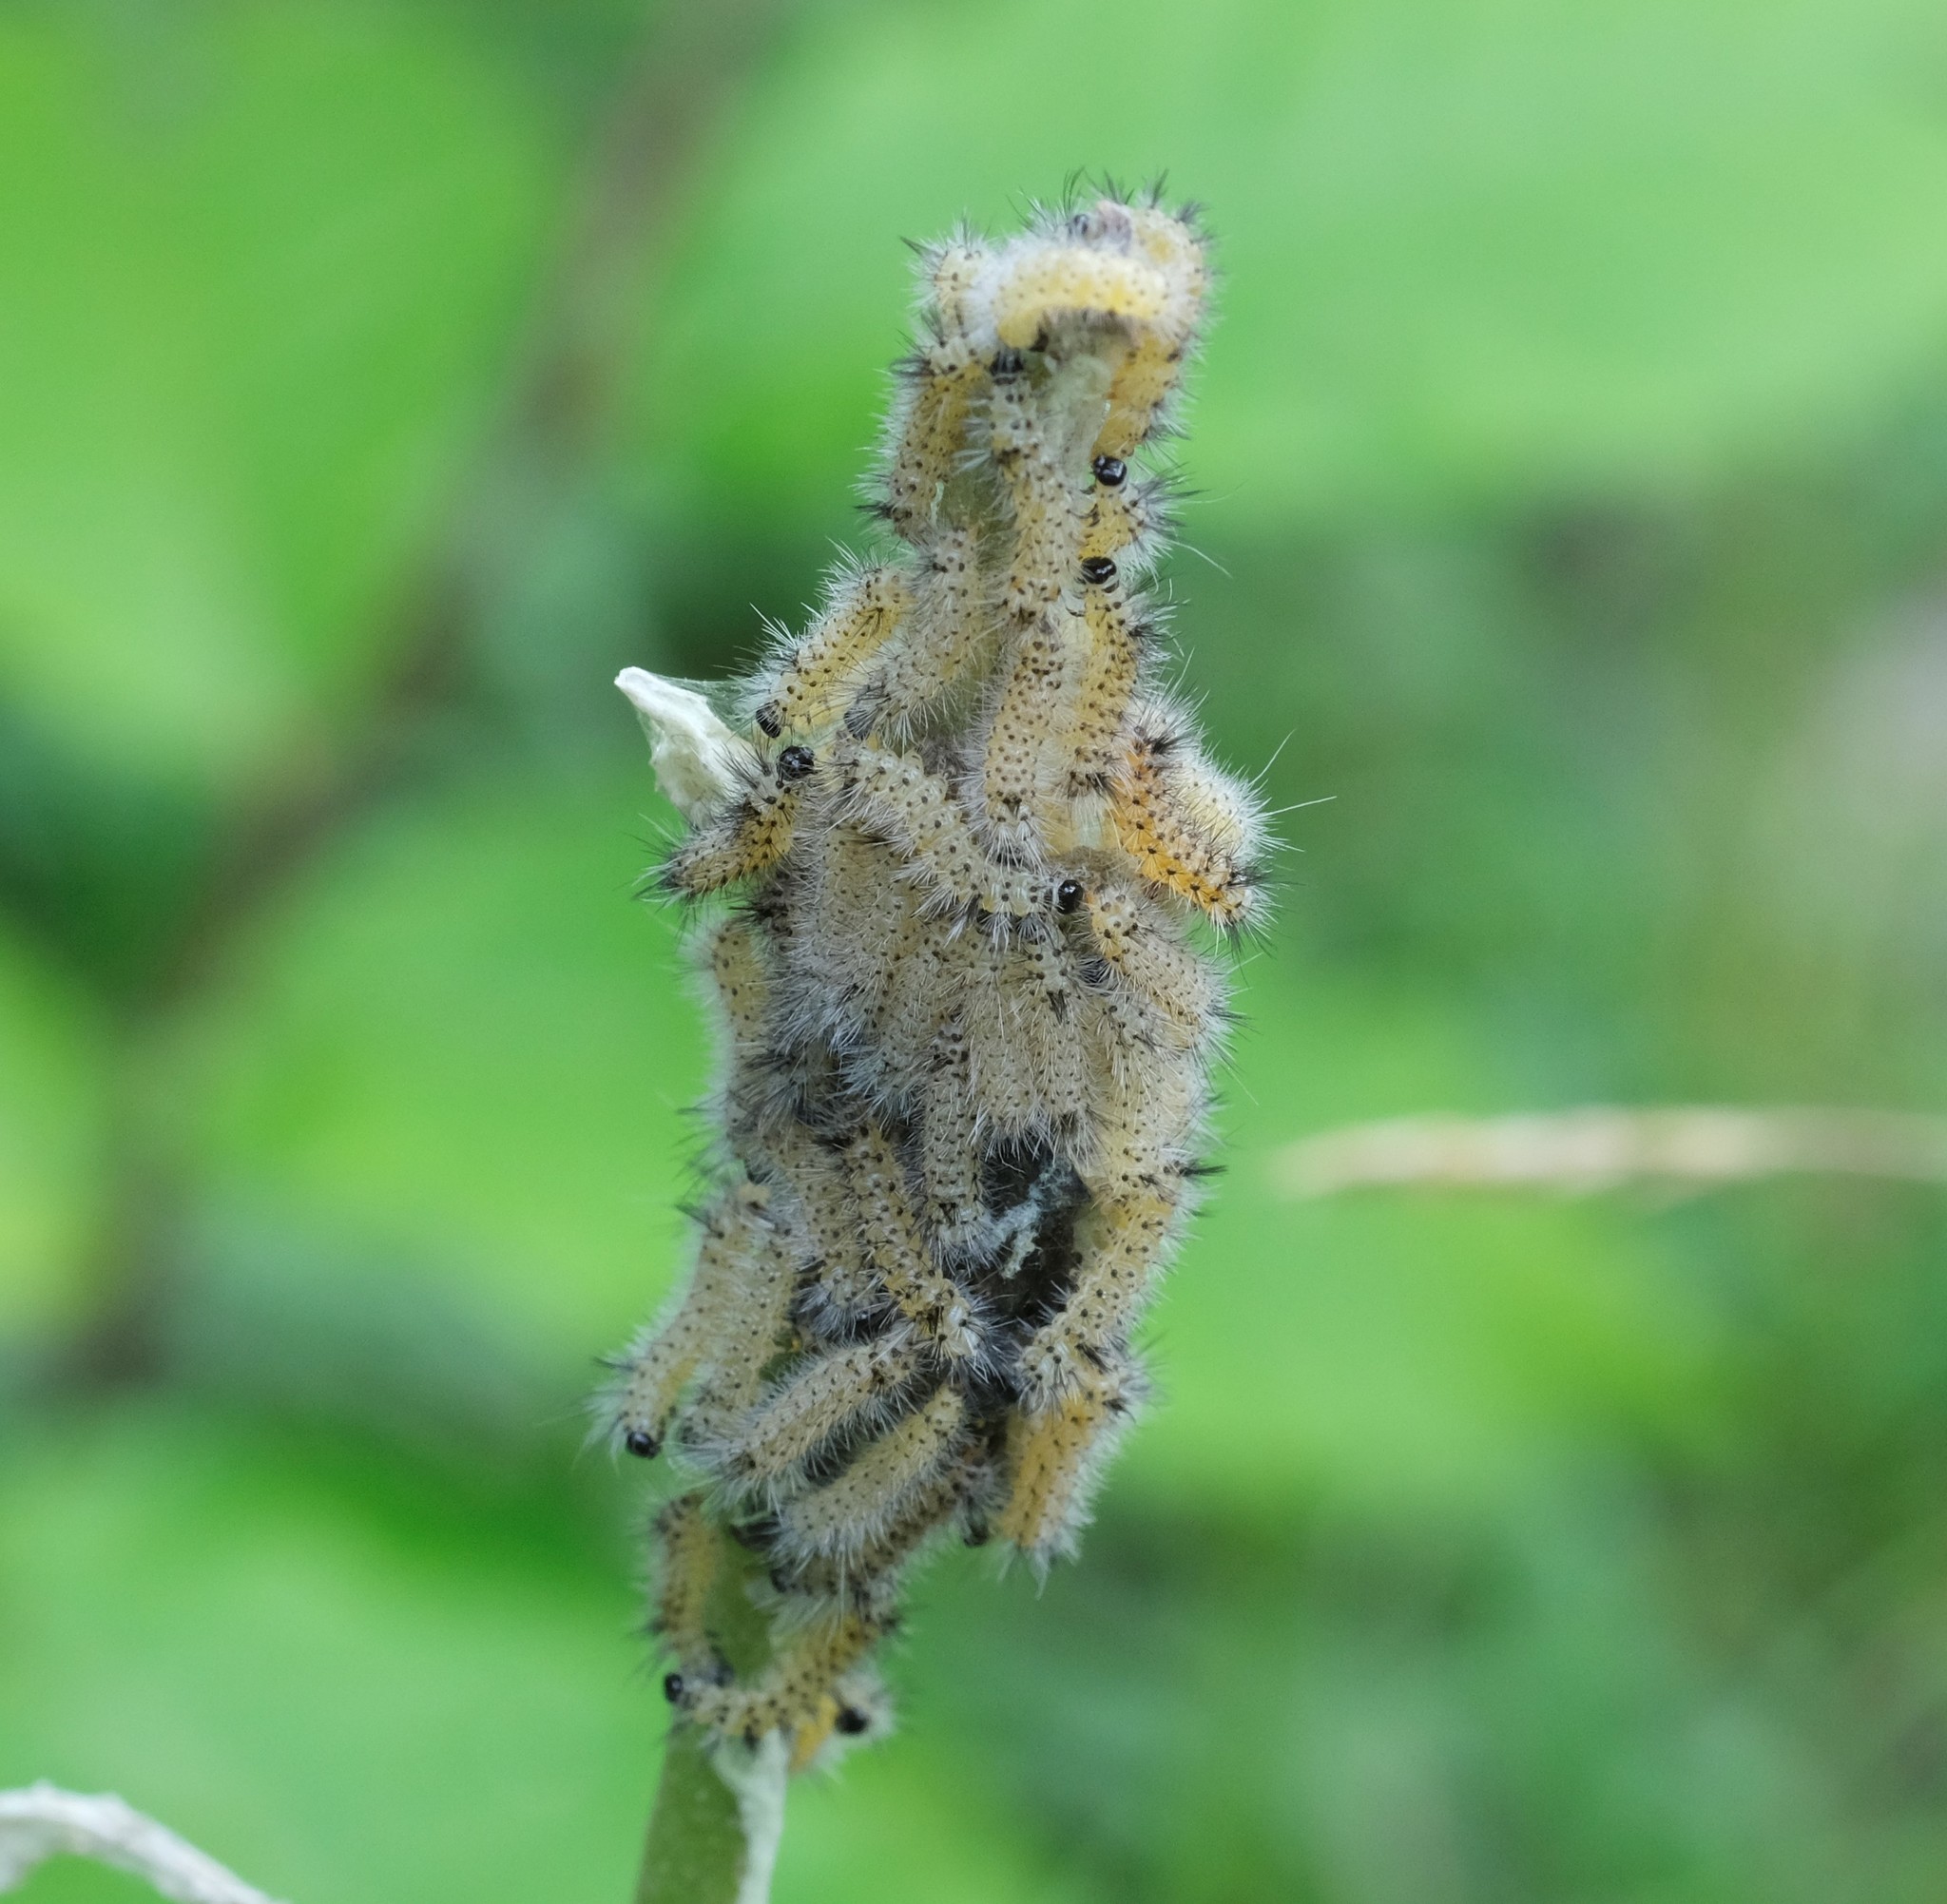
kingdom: Animalia
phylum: Arthropoda
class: Insecta
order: Lepidoptera
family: Erebidae
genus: Euchaetes
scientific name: Euchaetes egle
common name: Milkweed tussock moth
